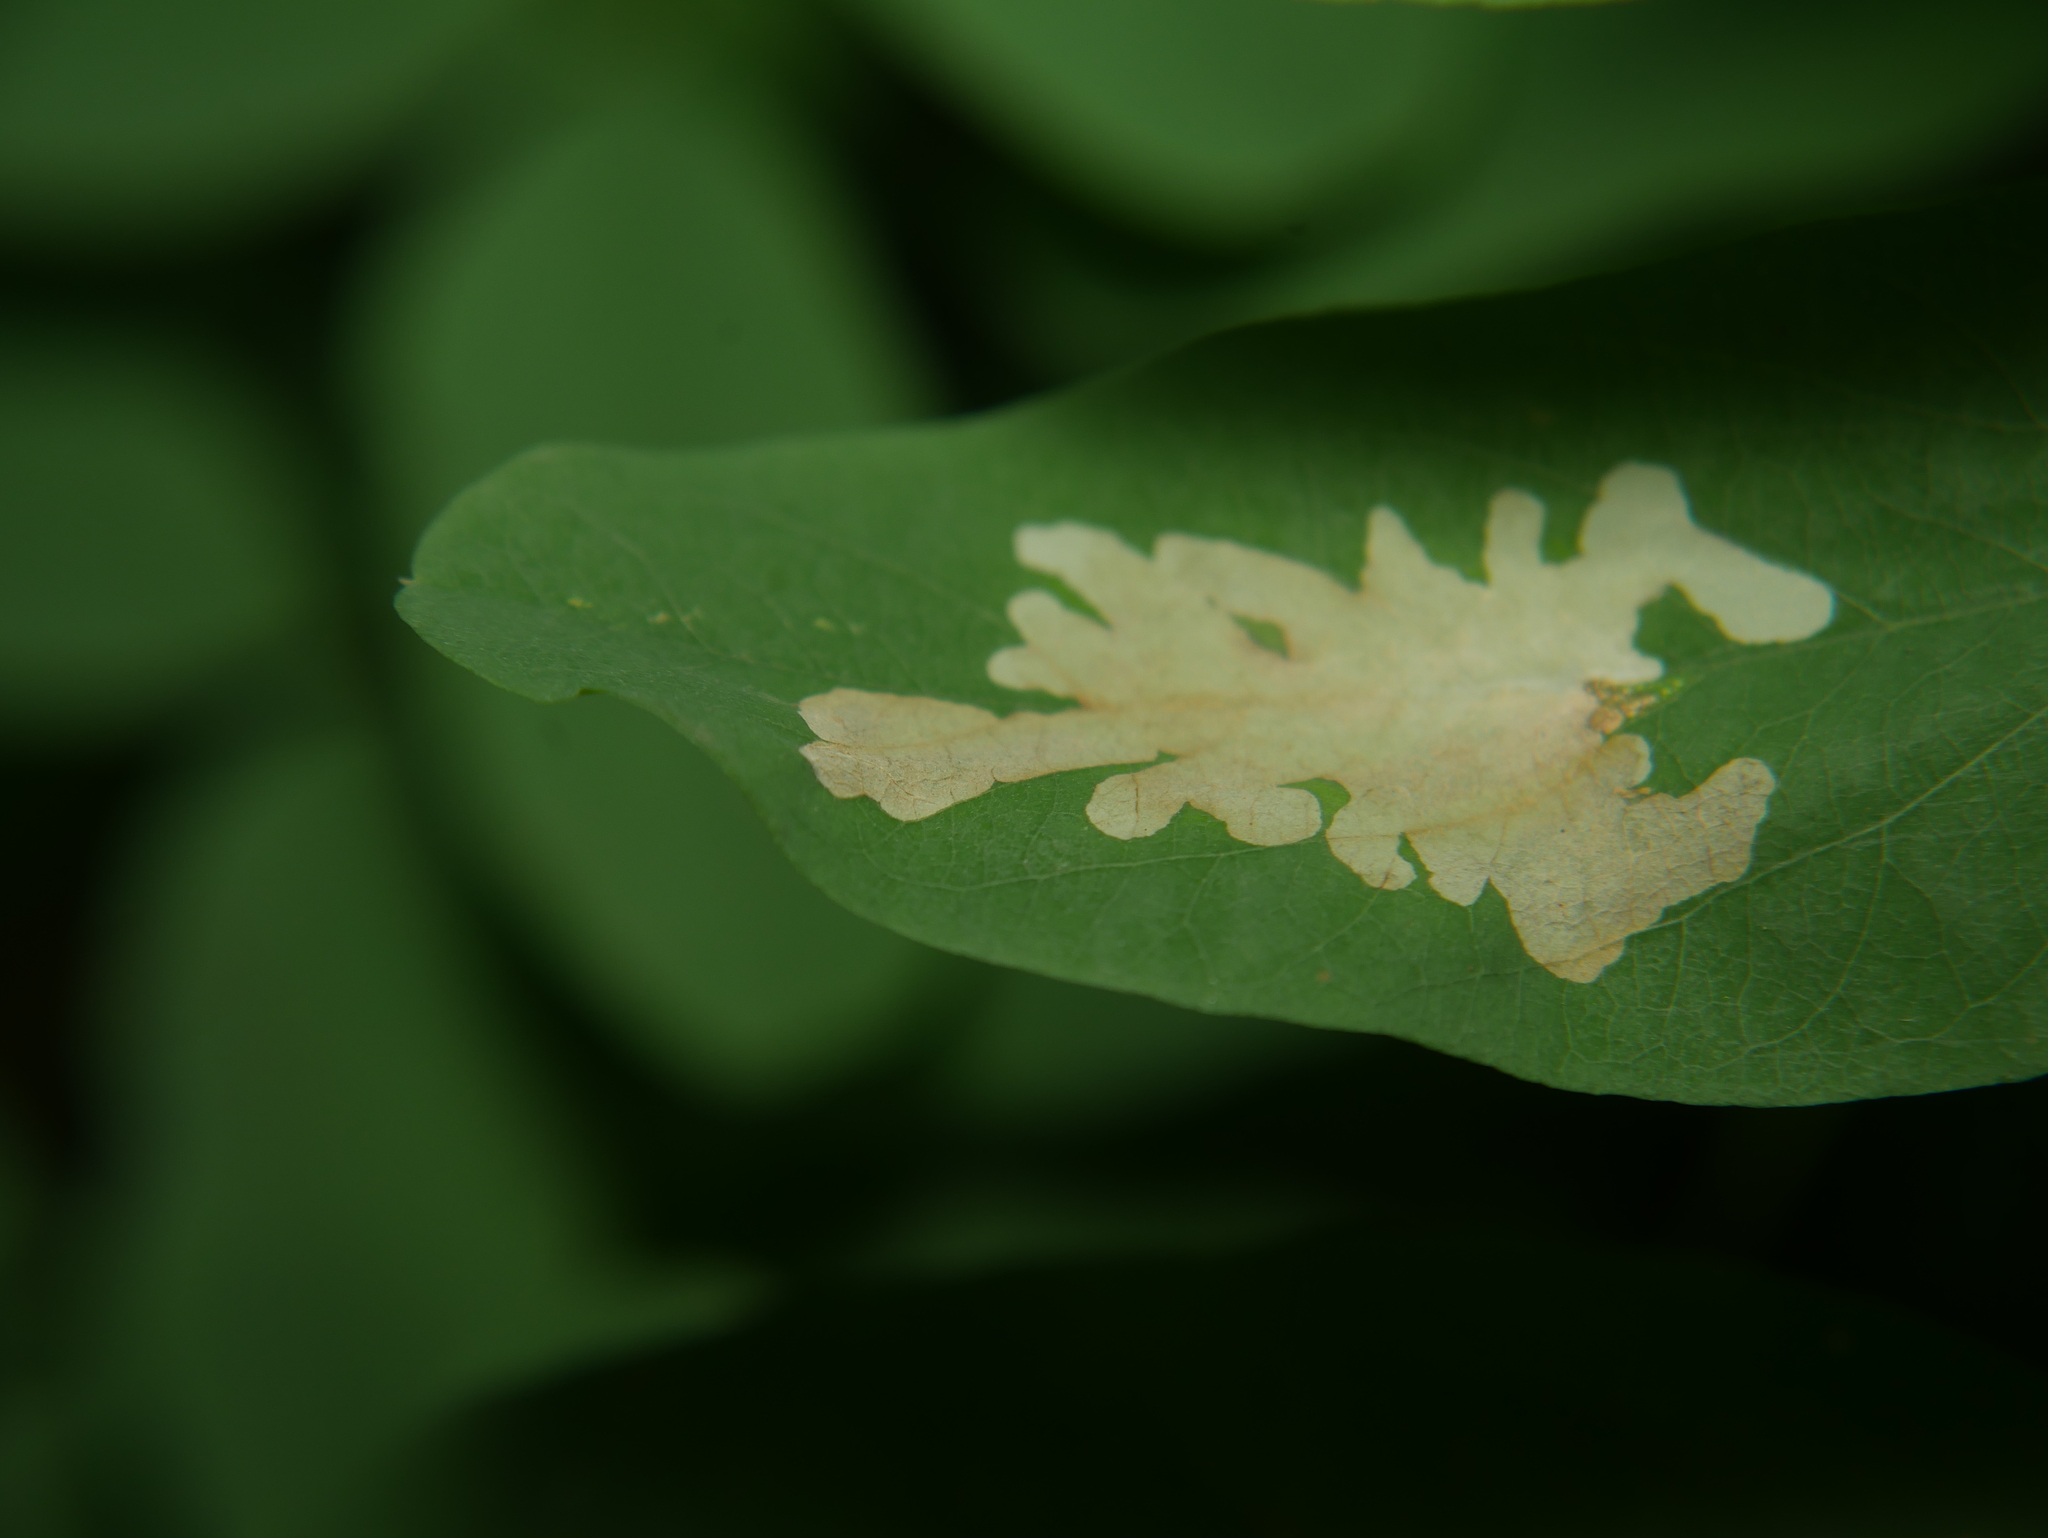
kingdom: Animalia
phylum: Arthropoda
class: Insecta
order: Lepidoptera
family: Gracillariidae
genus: Parectopa
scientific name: Parectopa robiniella
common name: Locust digitate leafminer
